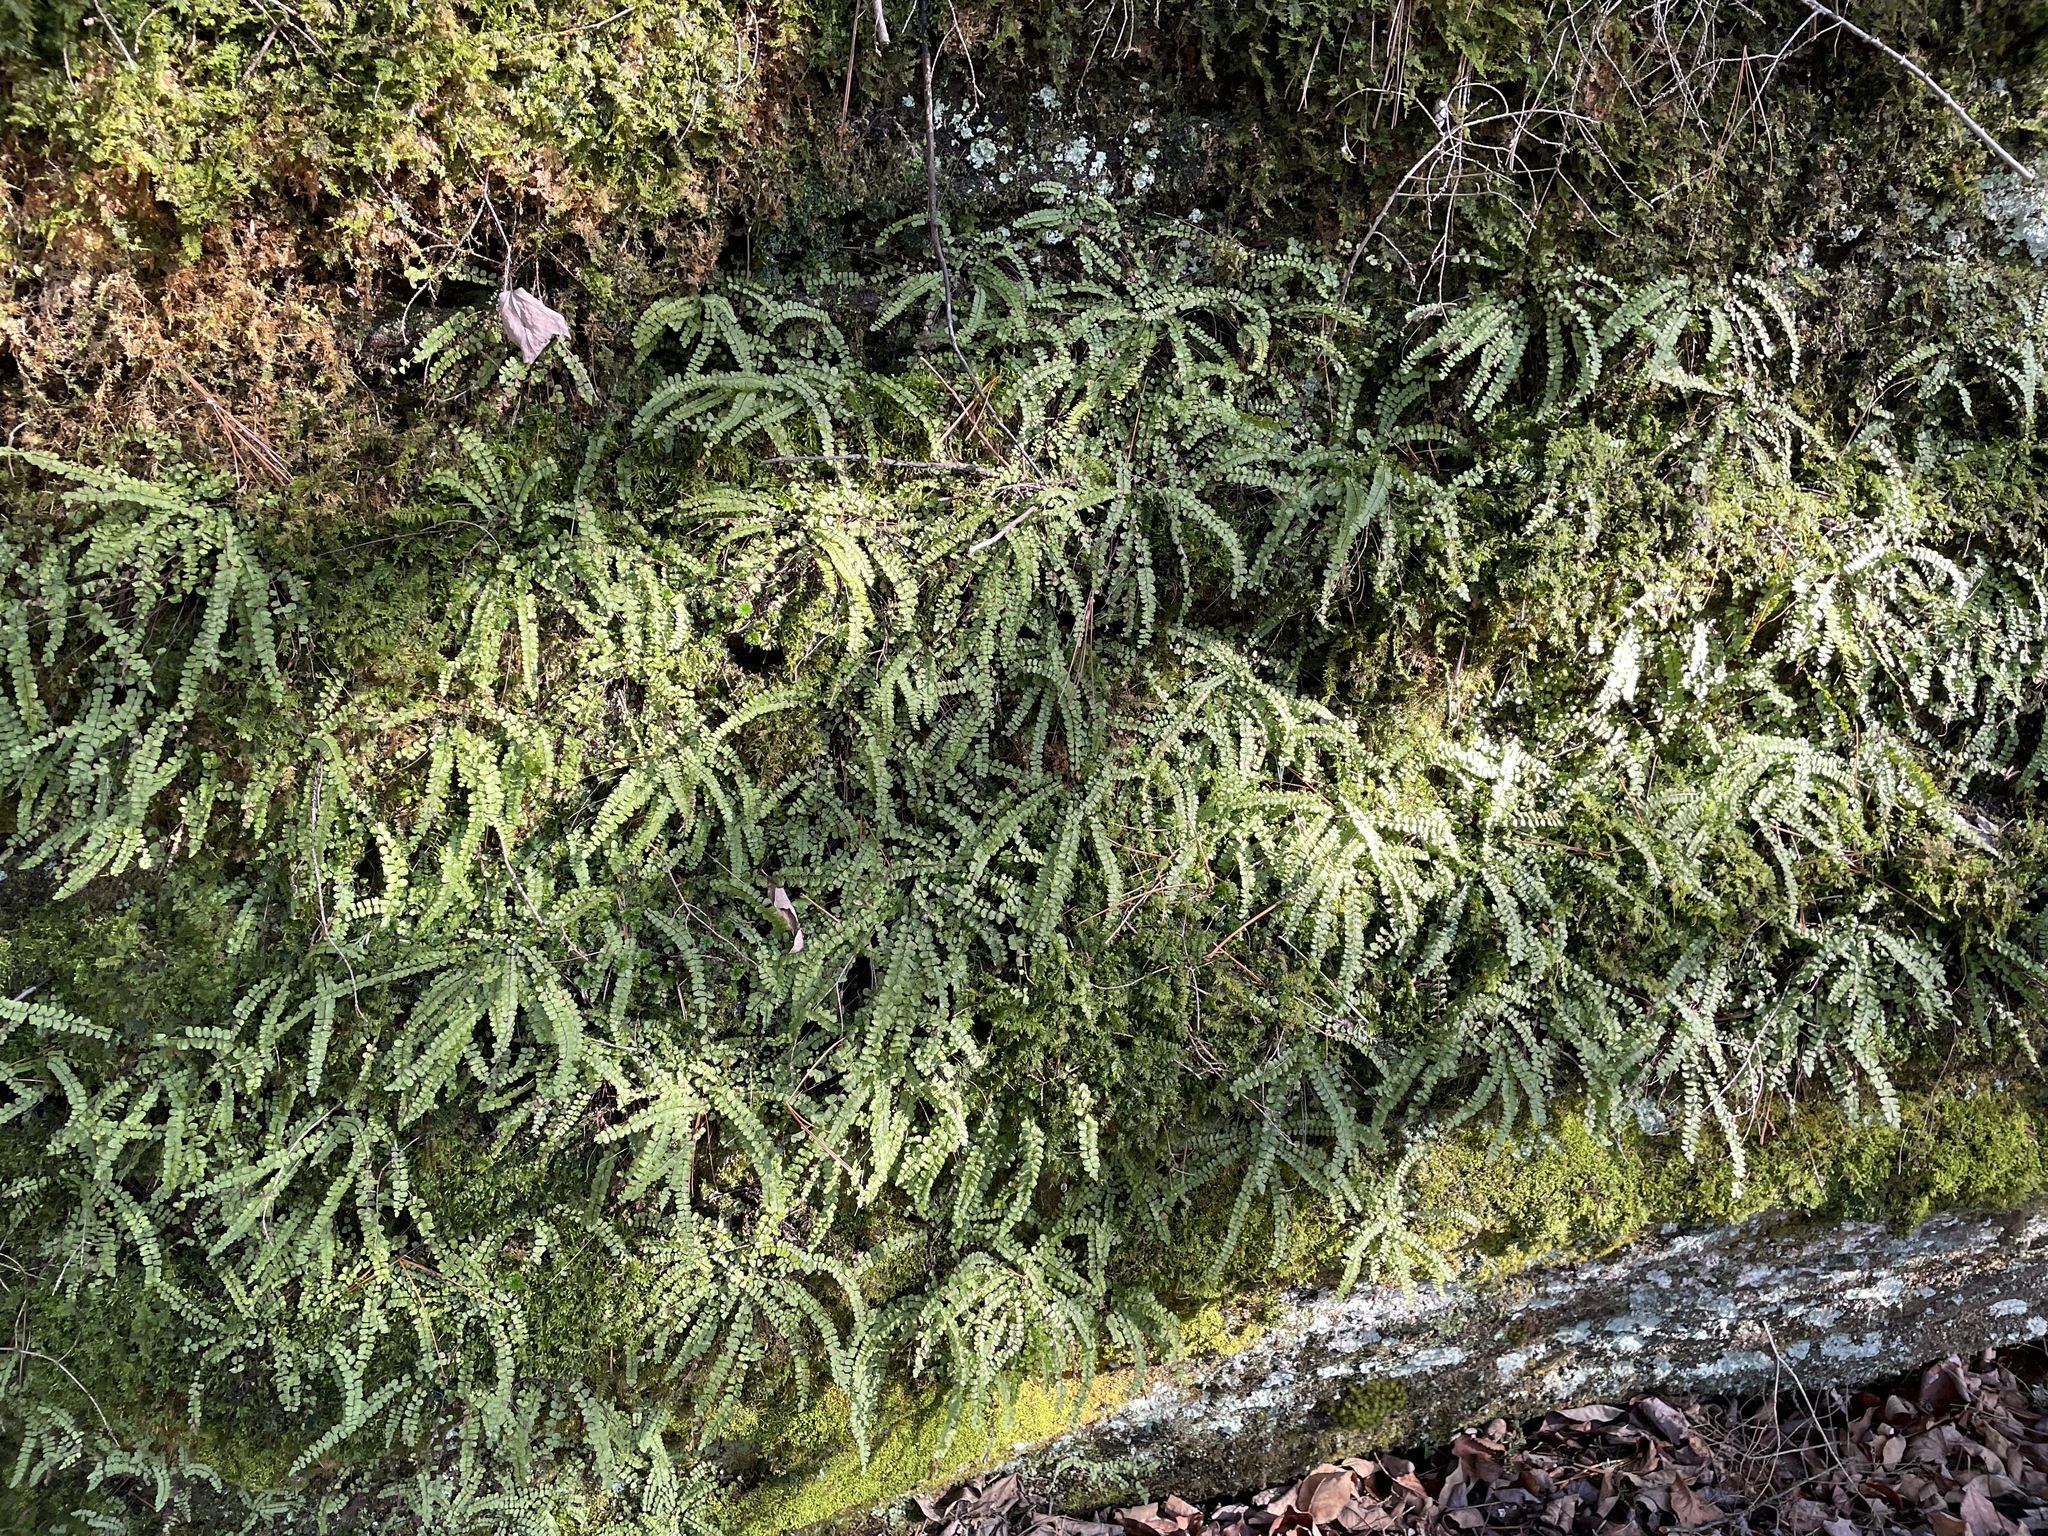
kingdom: Plantae
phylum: Tracheophyta
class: Polypodiopsida
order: Polypodiales
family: Aspleniaceae
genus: Asplenium
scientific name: Asplenium trichomanes
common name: Maidenhair spleenwort
